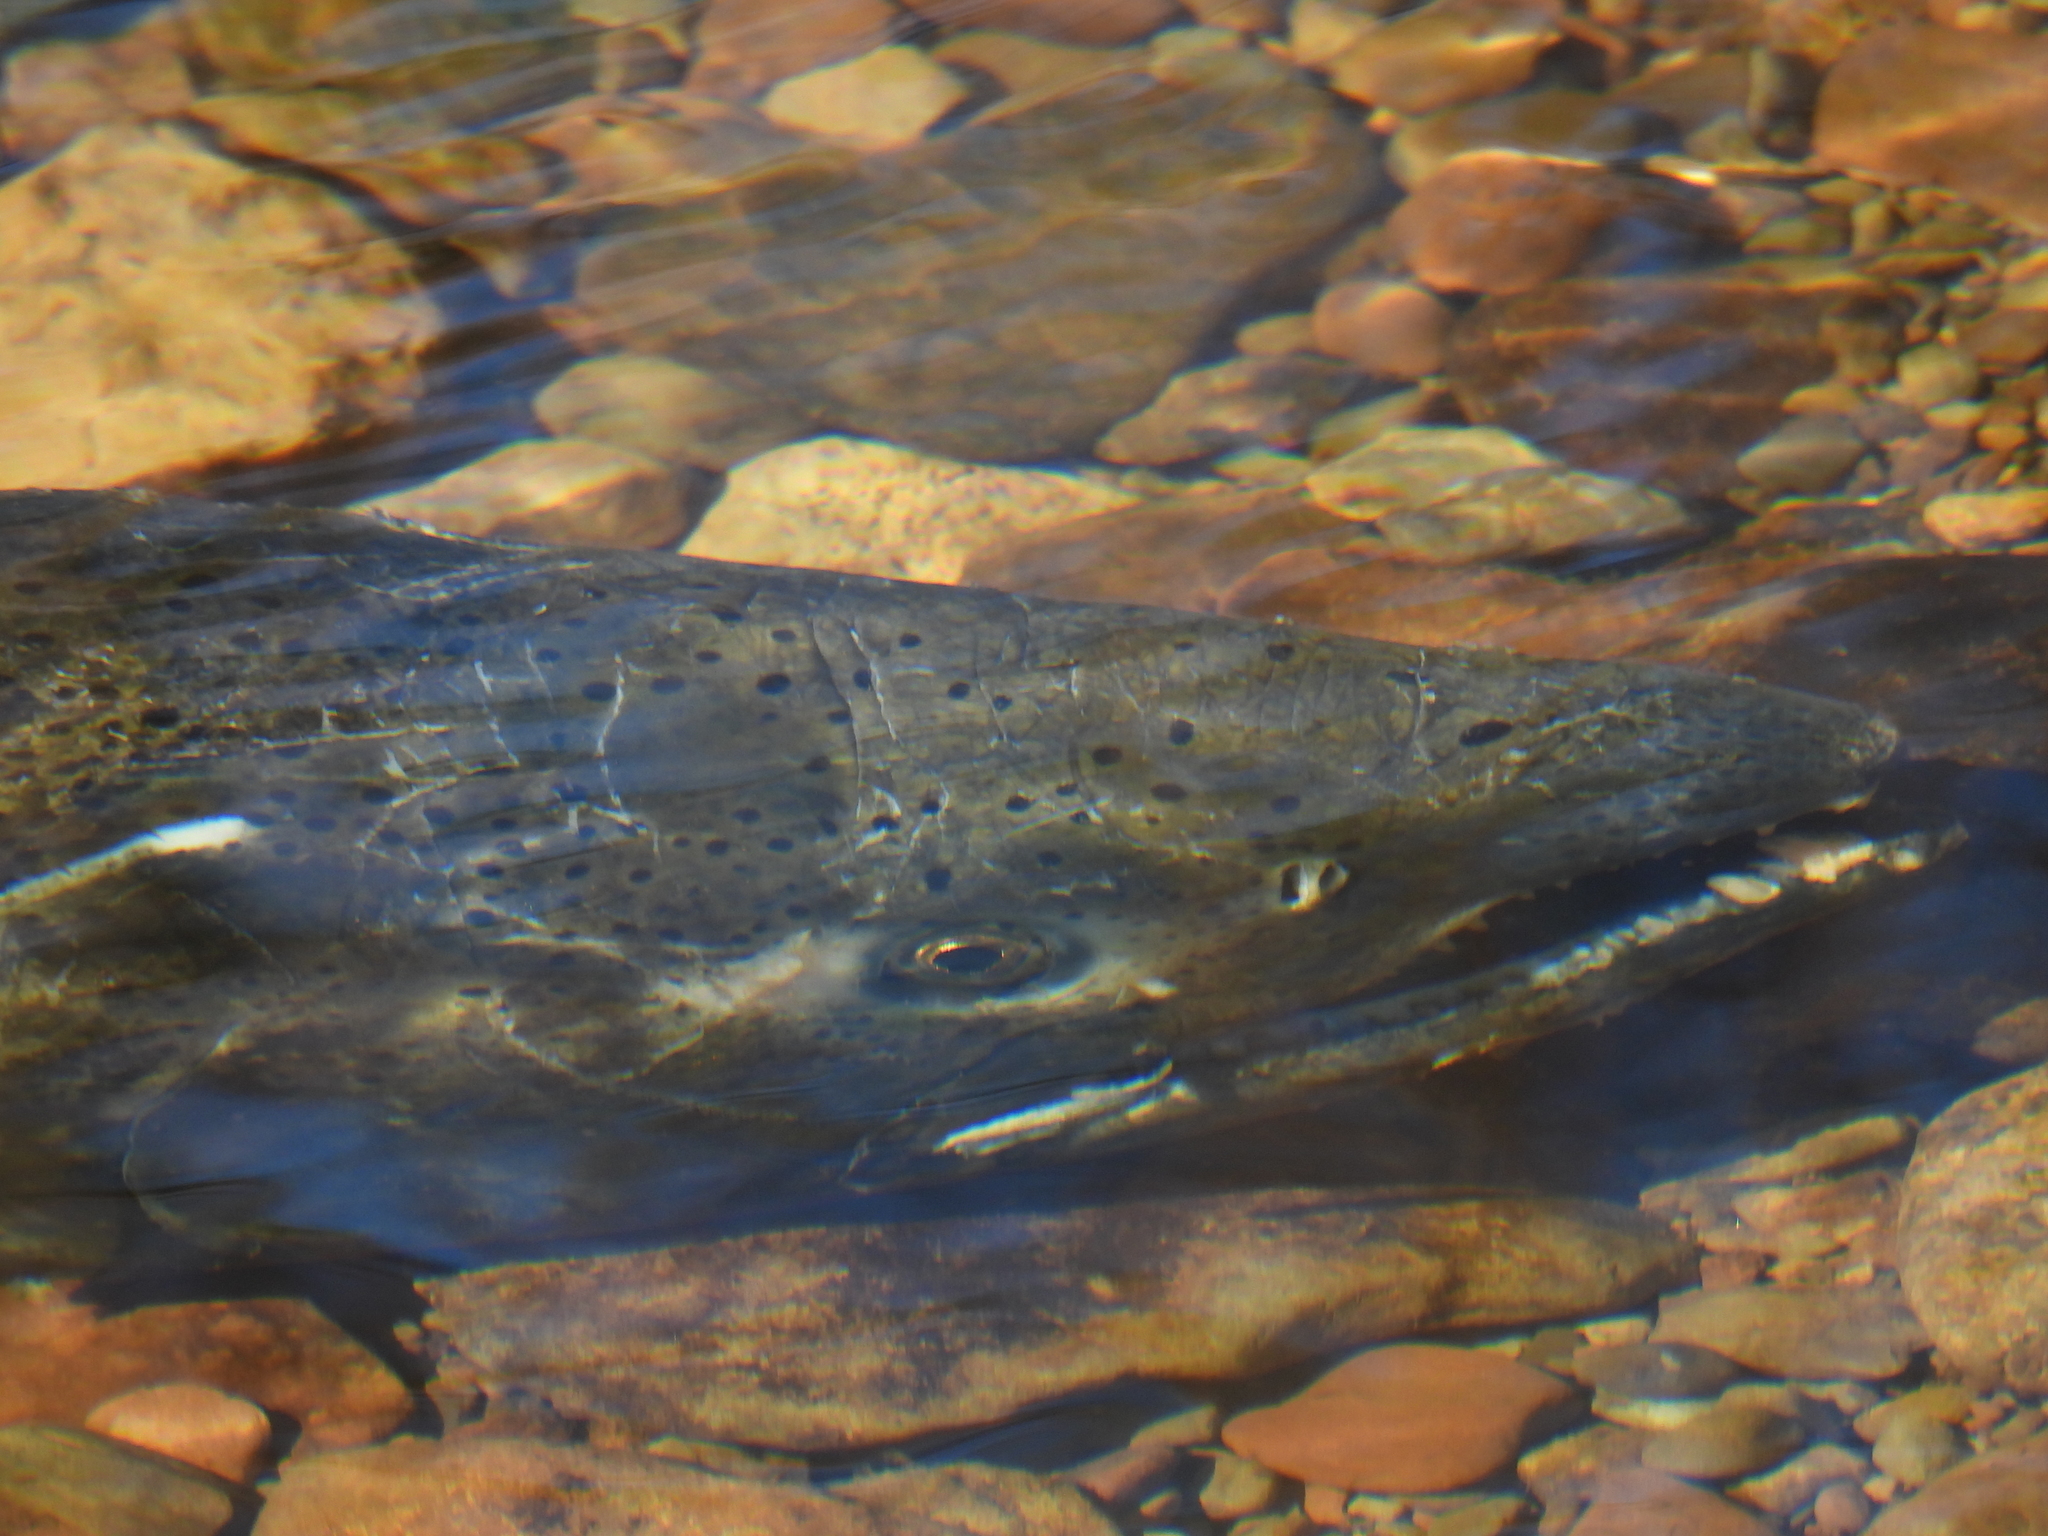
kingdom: Animalia
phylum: Chordata
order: Salmoniformes
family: Salmonidae
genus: Oncorhynchus
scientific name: Oncorhynchus tshawytscha
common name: Chinook salmon
